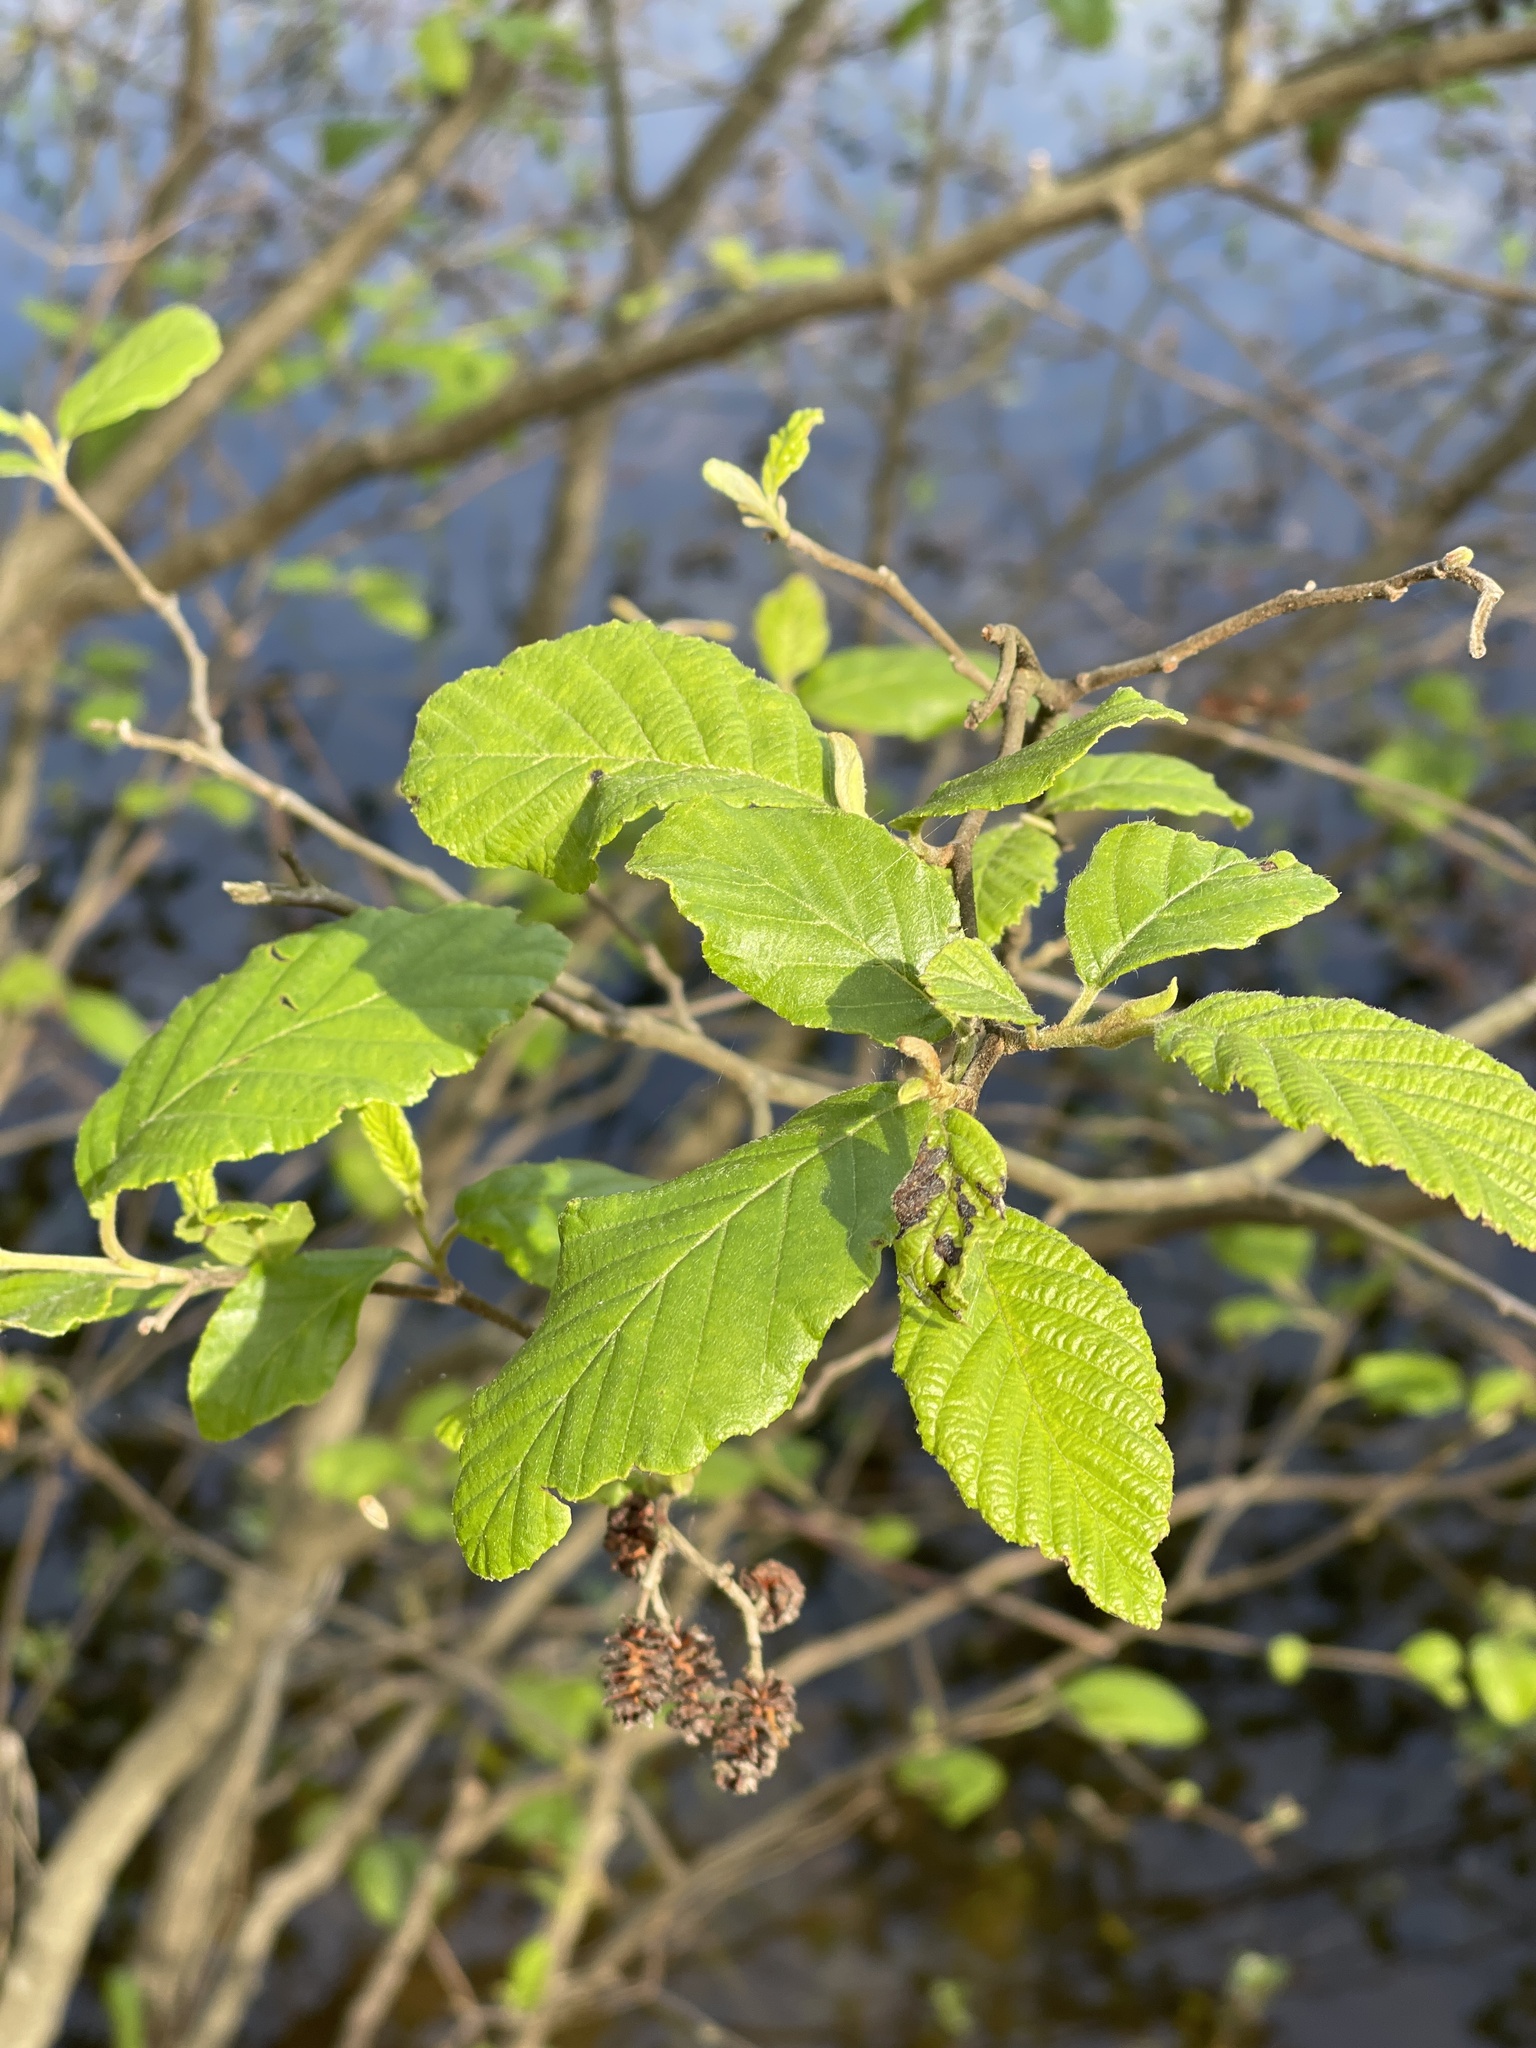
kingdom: Plantae
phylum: Tracheophyta
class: Magnoliopsida
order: Fagales
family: Betulaceae
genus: Alnus
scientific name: Alnus serrulata
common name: Hazel alder
